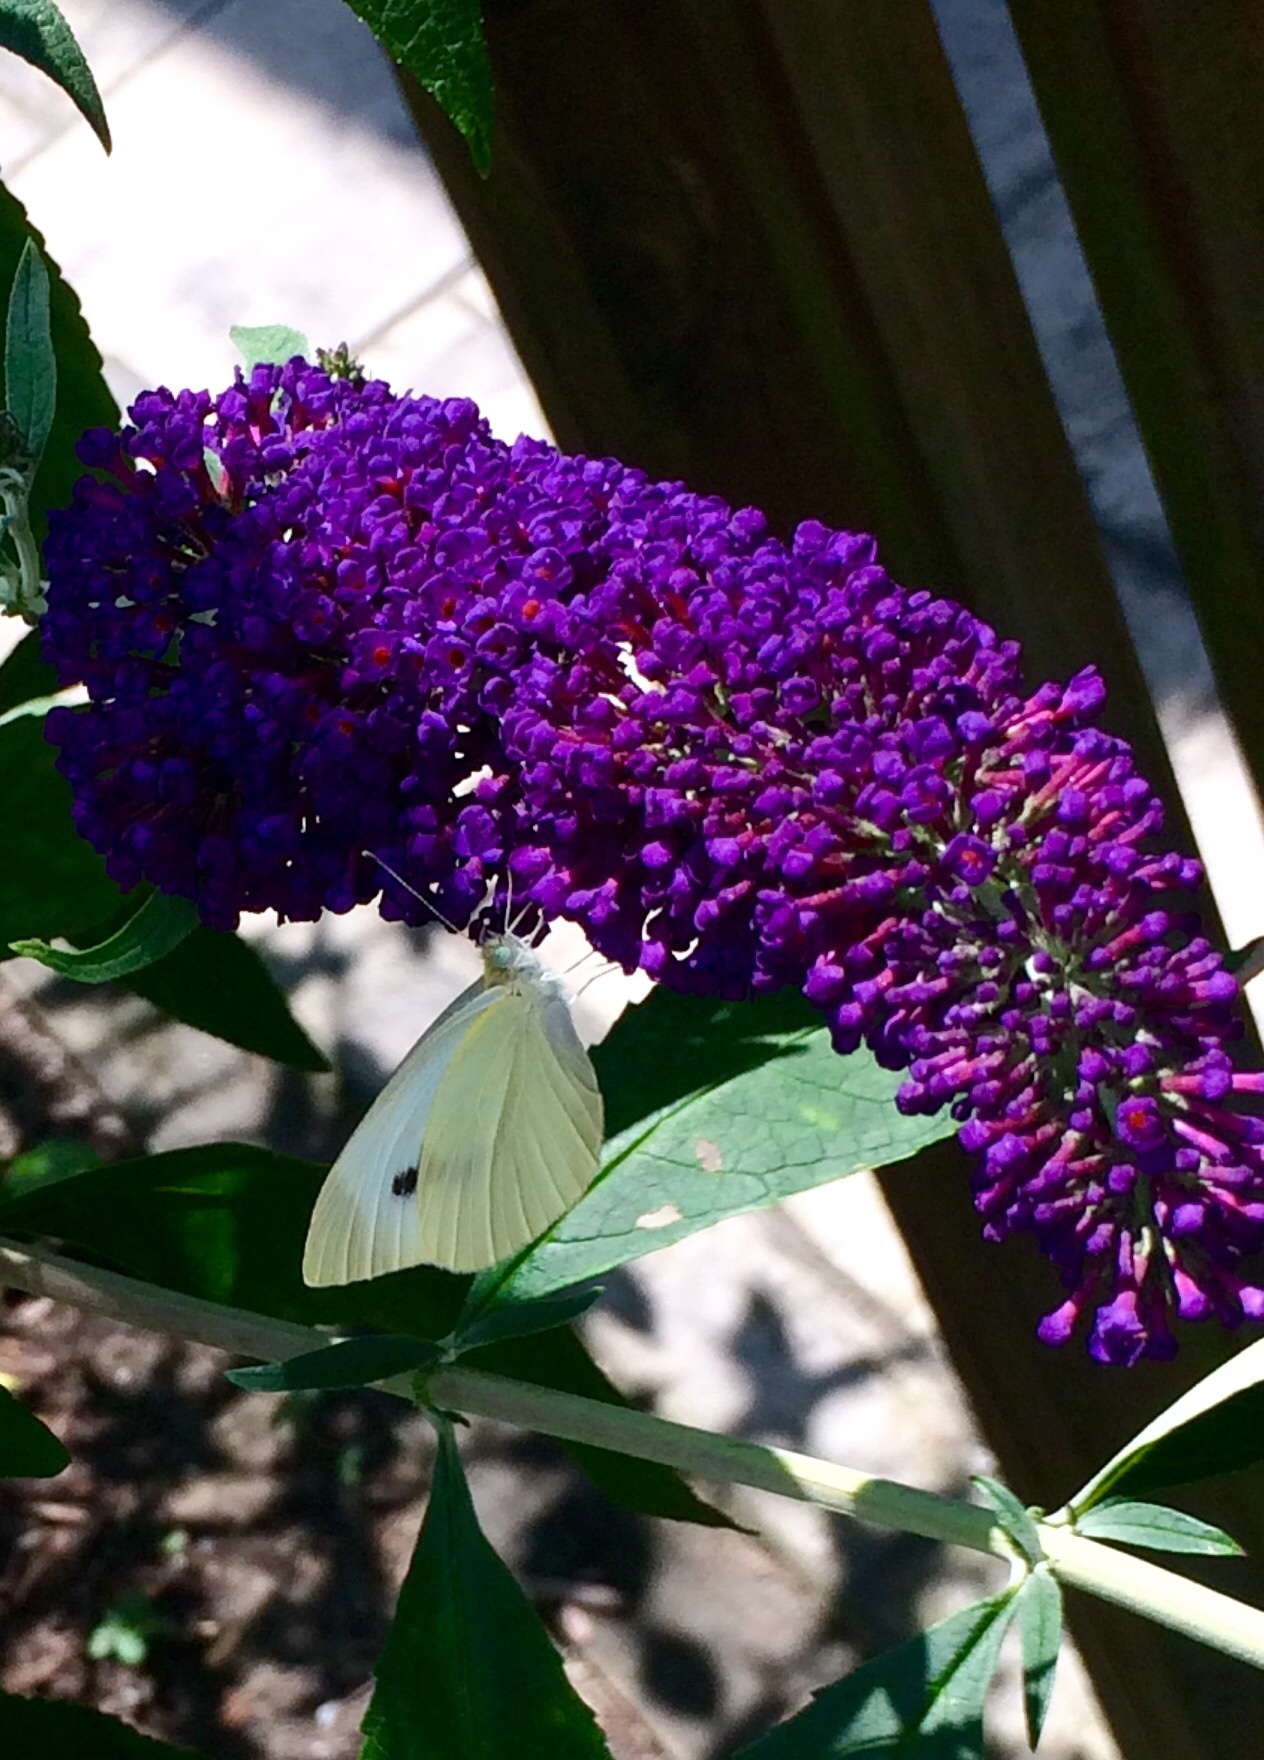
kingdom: Animalia
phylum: Arthropoda
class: Insecta
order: Lepidoptera
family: Pieridae
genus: Pieris
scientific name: Pieris rapae
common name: Small white
